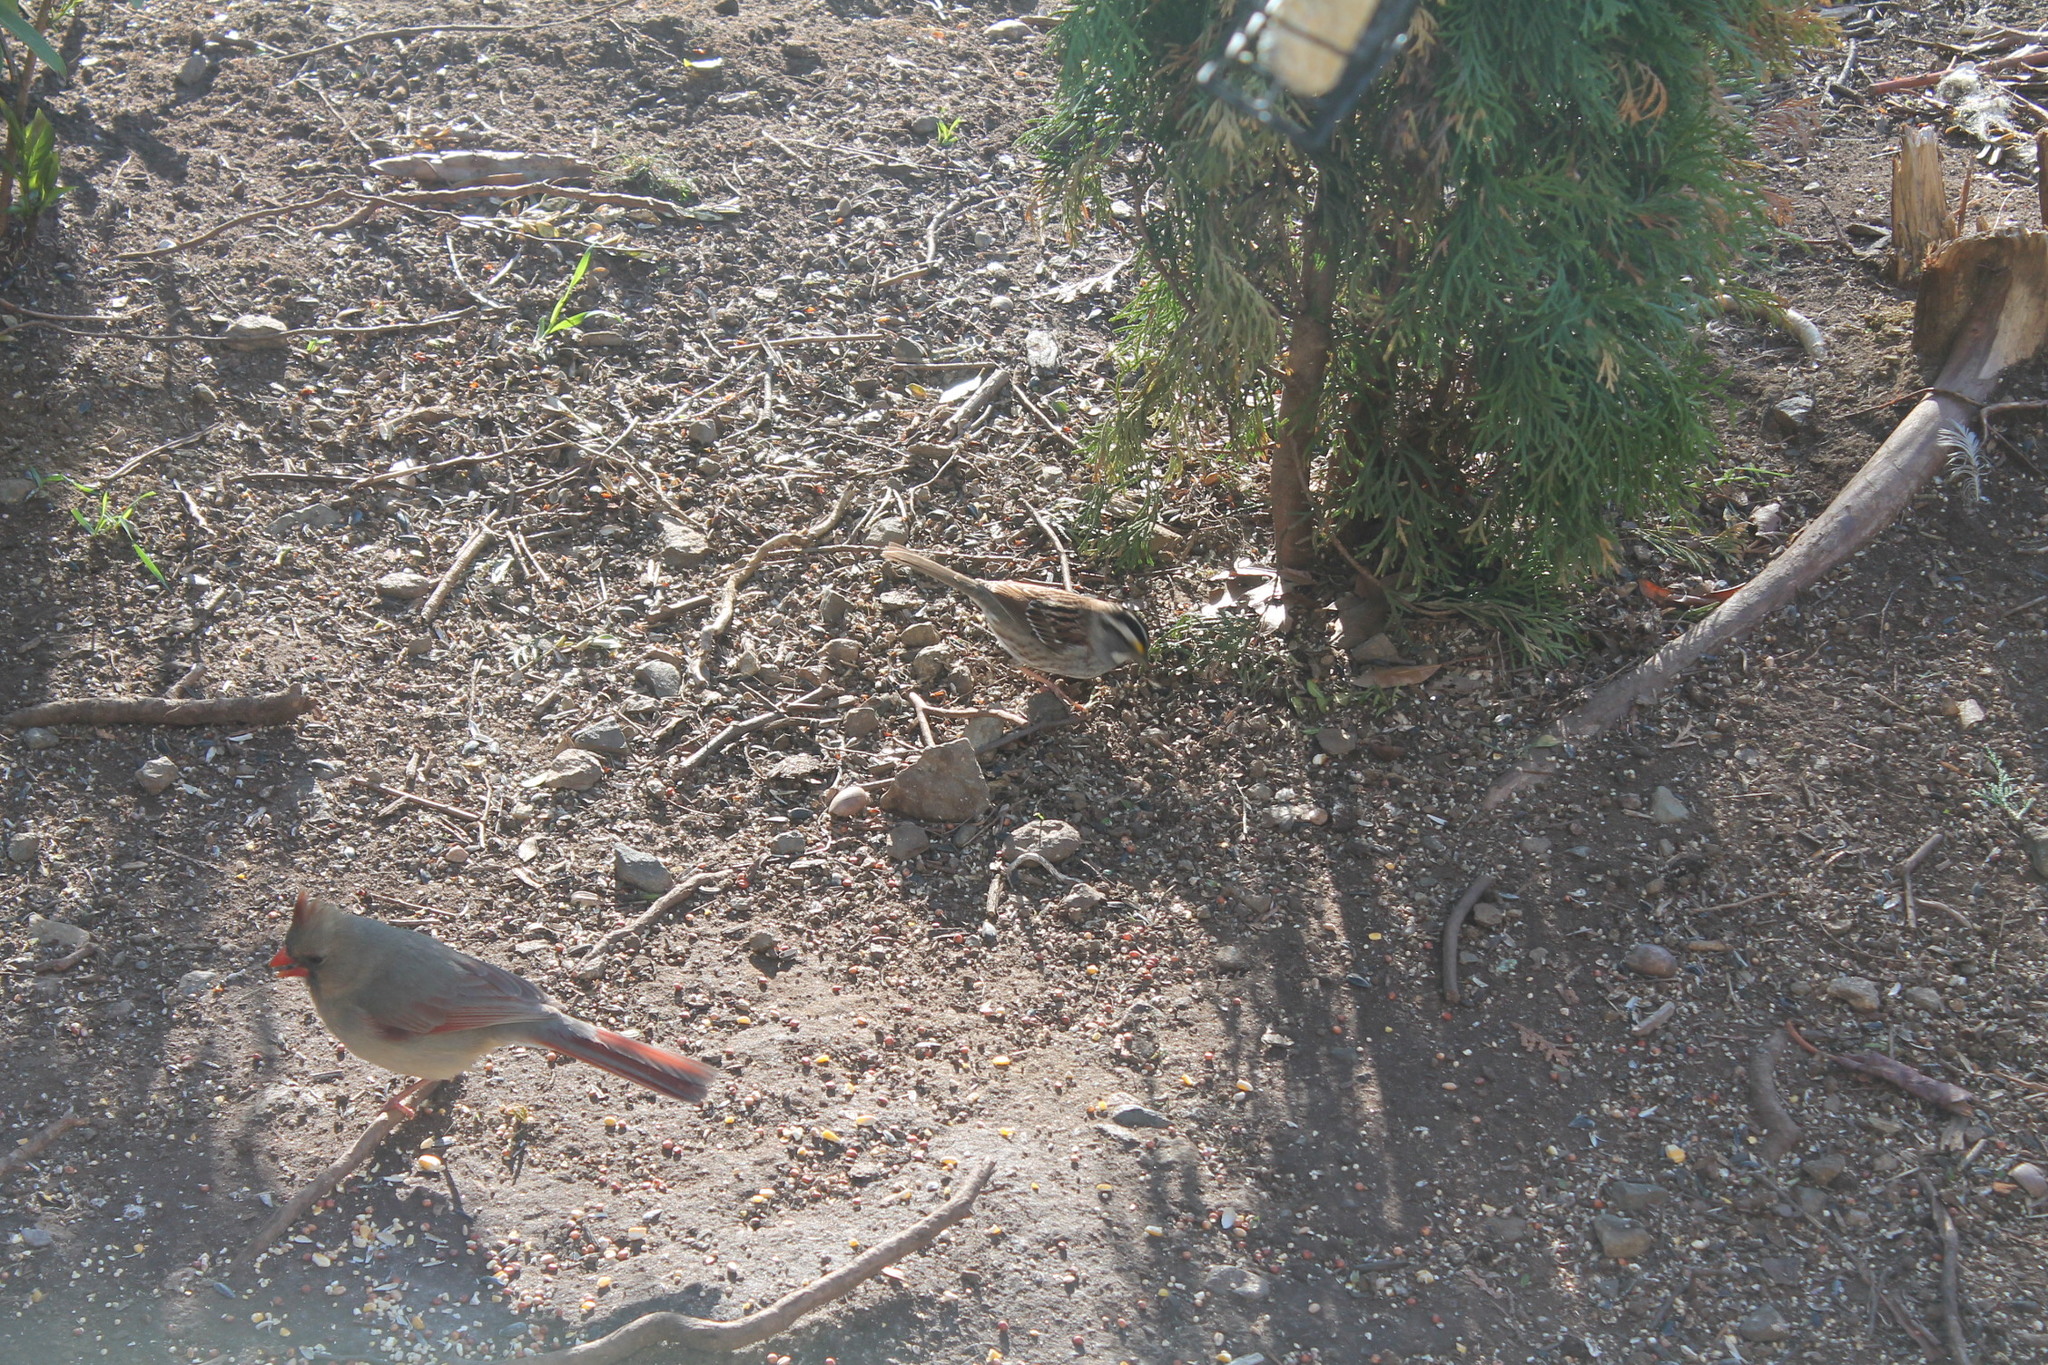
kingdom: Animalia
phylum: Chordata
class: Aves
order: Passeriformes
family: Passerellidae
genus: Zonotrichia
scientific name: Zonotrichia albicollis
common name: White-throated sparrow
